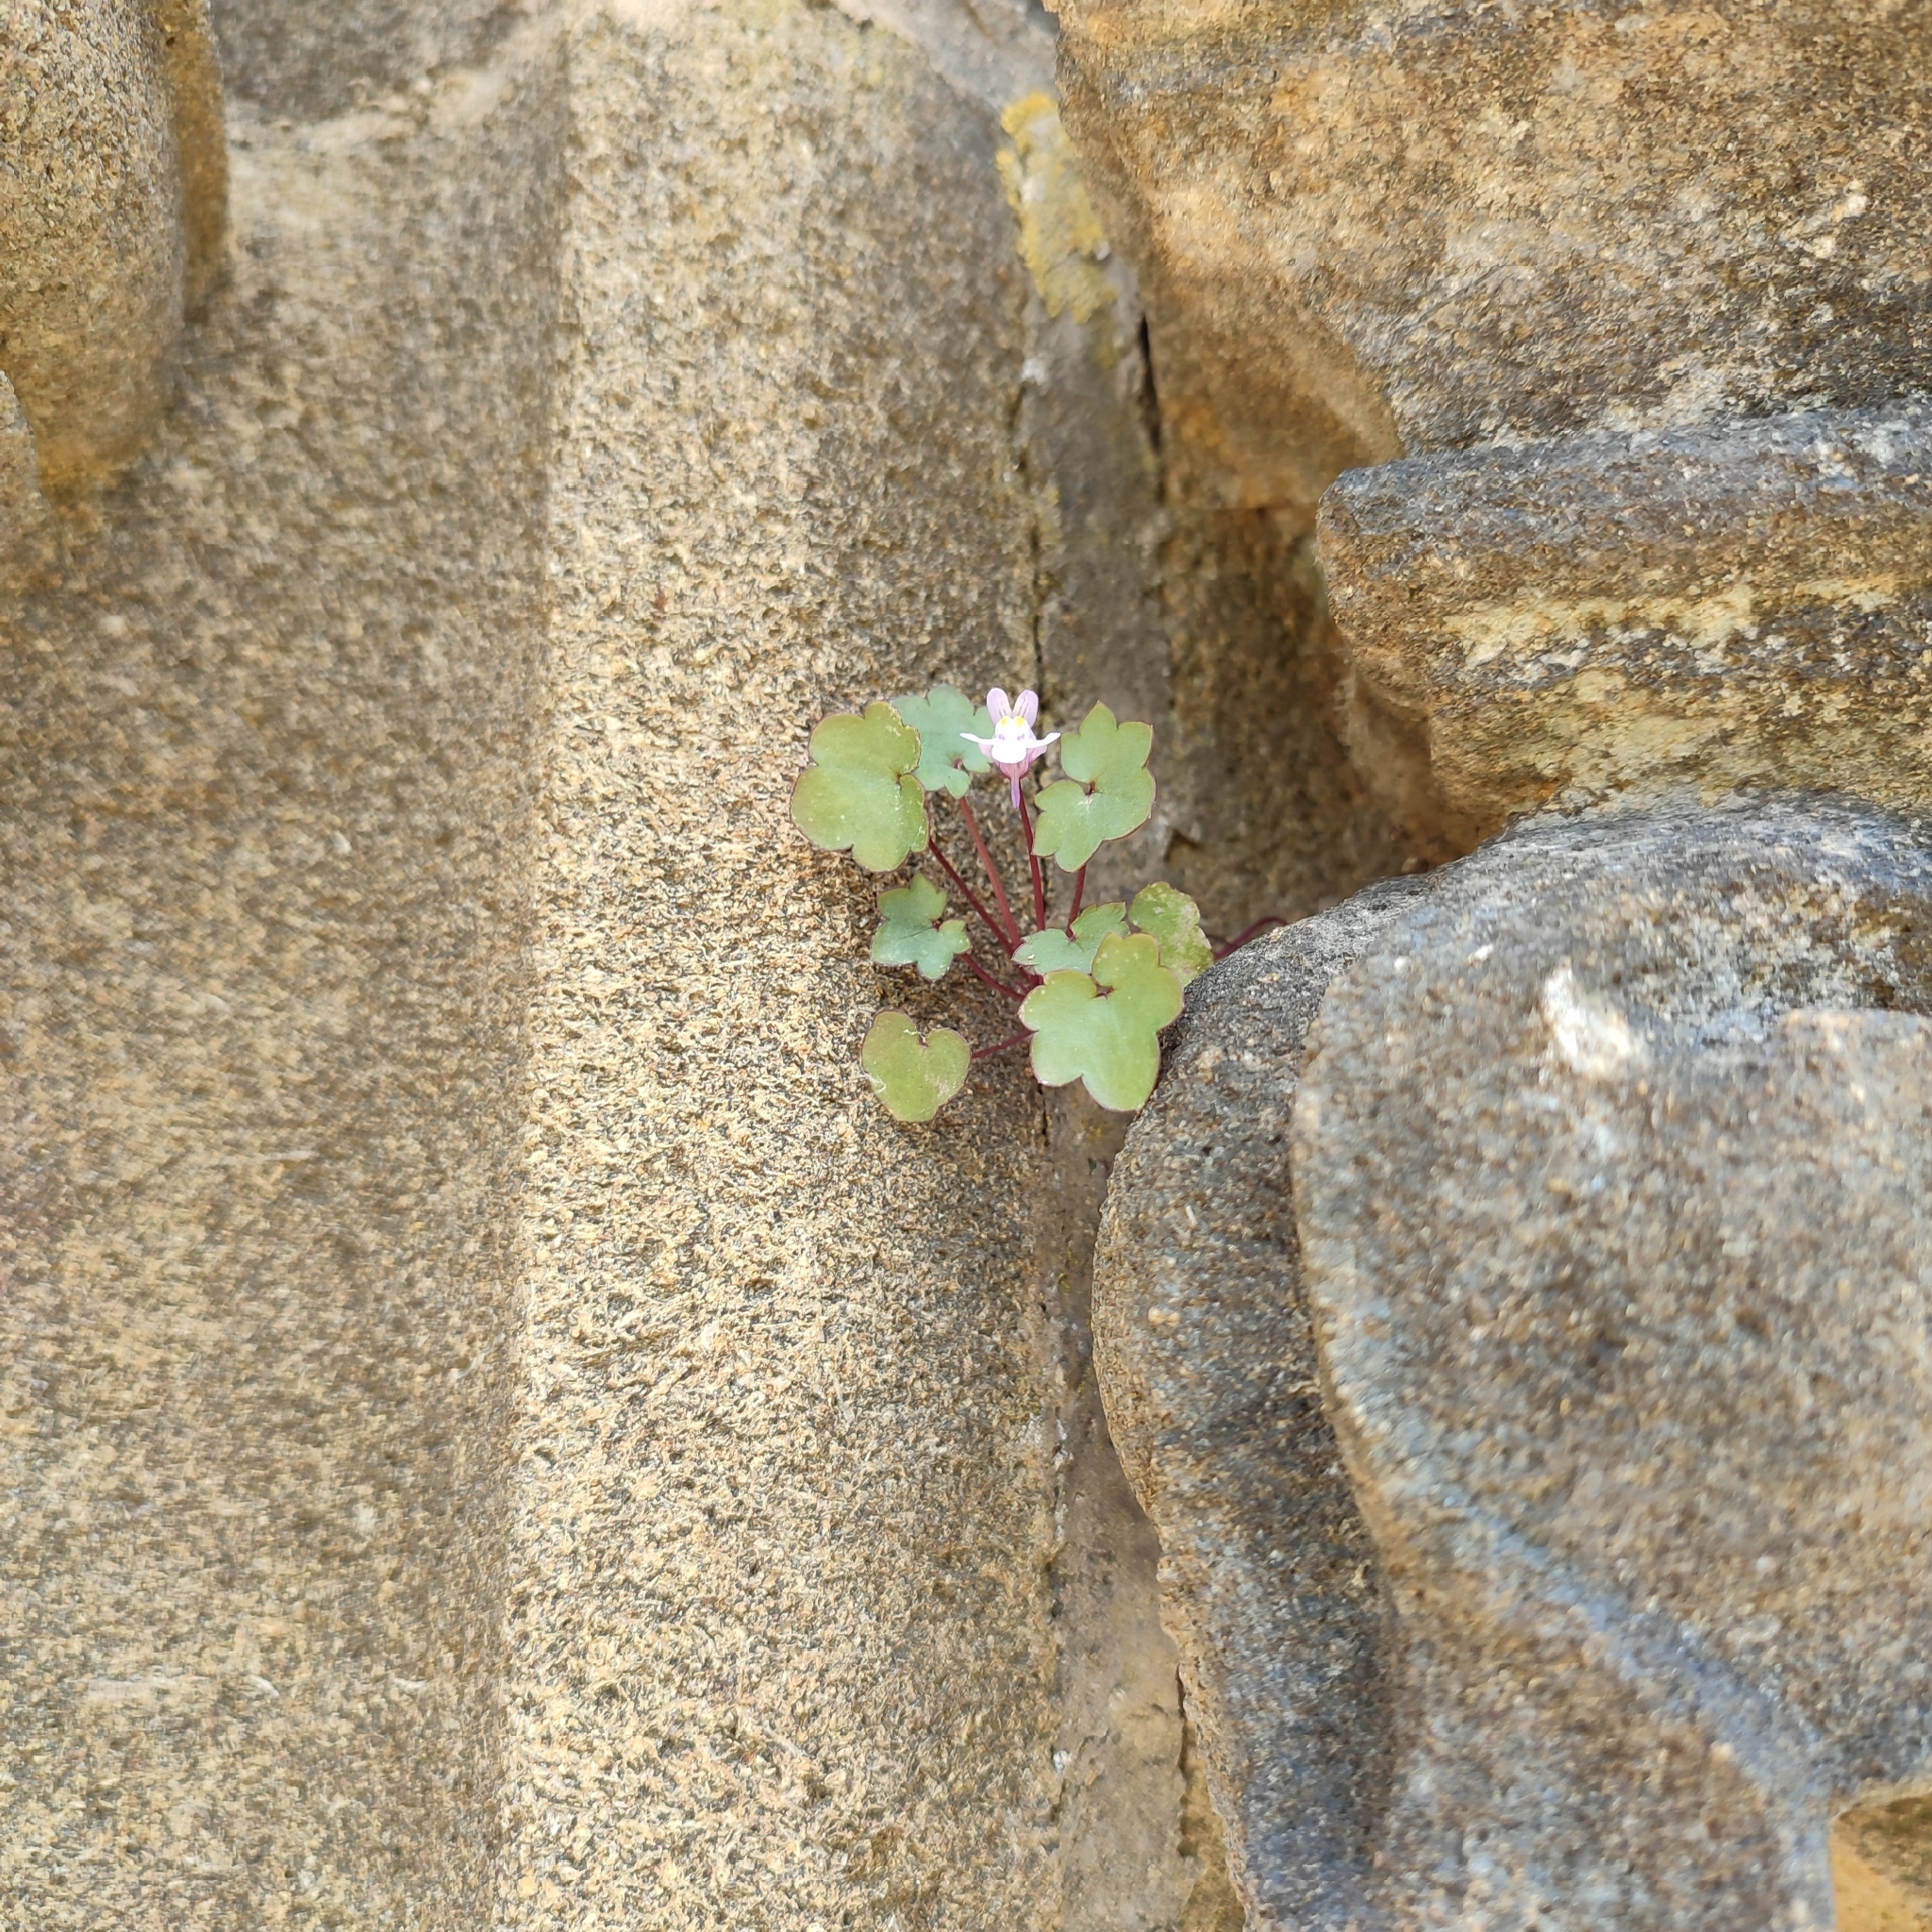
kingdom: Plantae
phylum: Tracheophyta
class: Magnoliopsida
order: Lamiales
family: Plantaginaceae
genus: Cymbalaria
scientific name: Cymbalaria muralis
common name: Ivy-leaved toadflax
